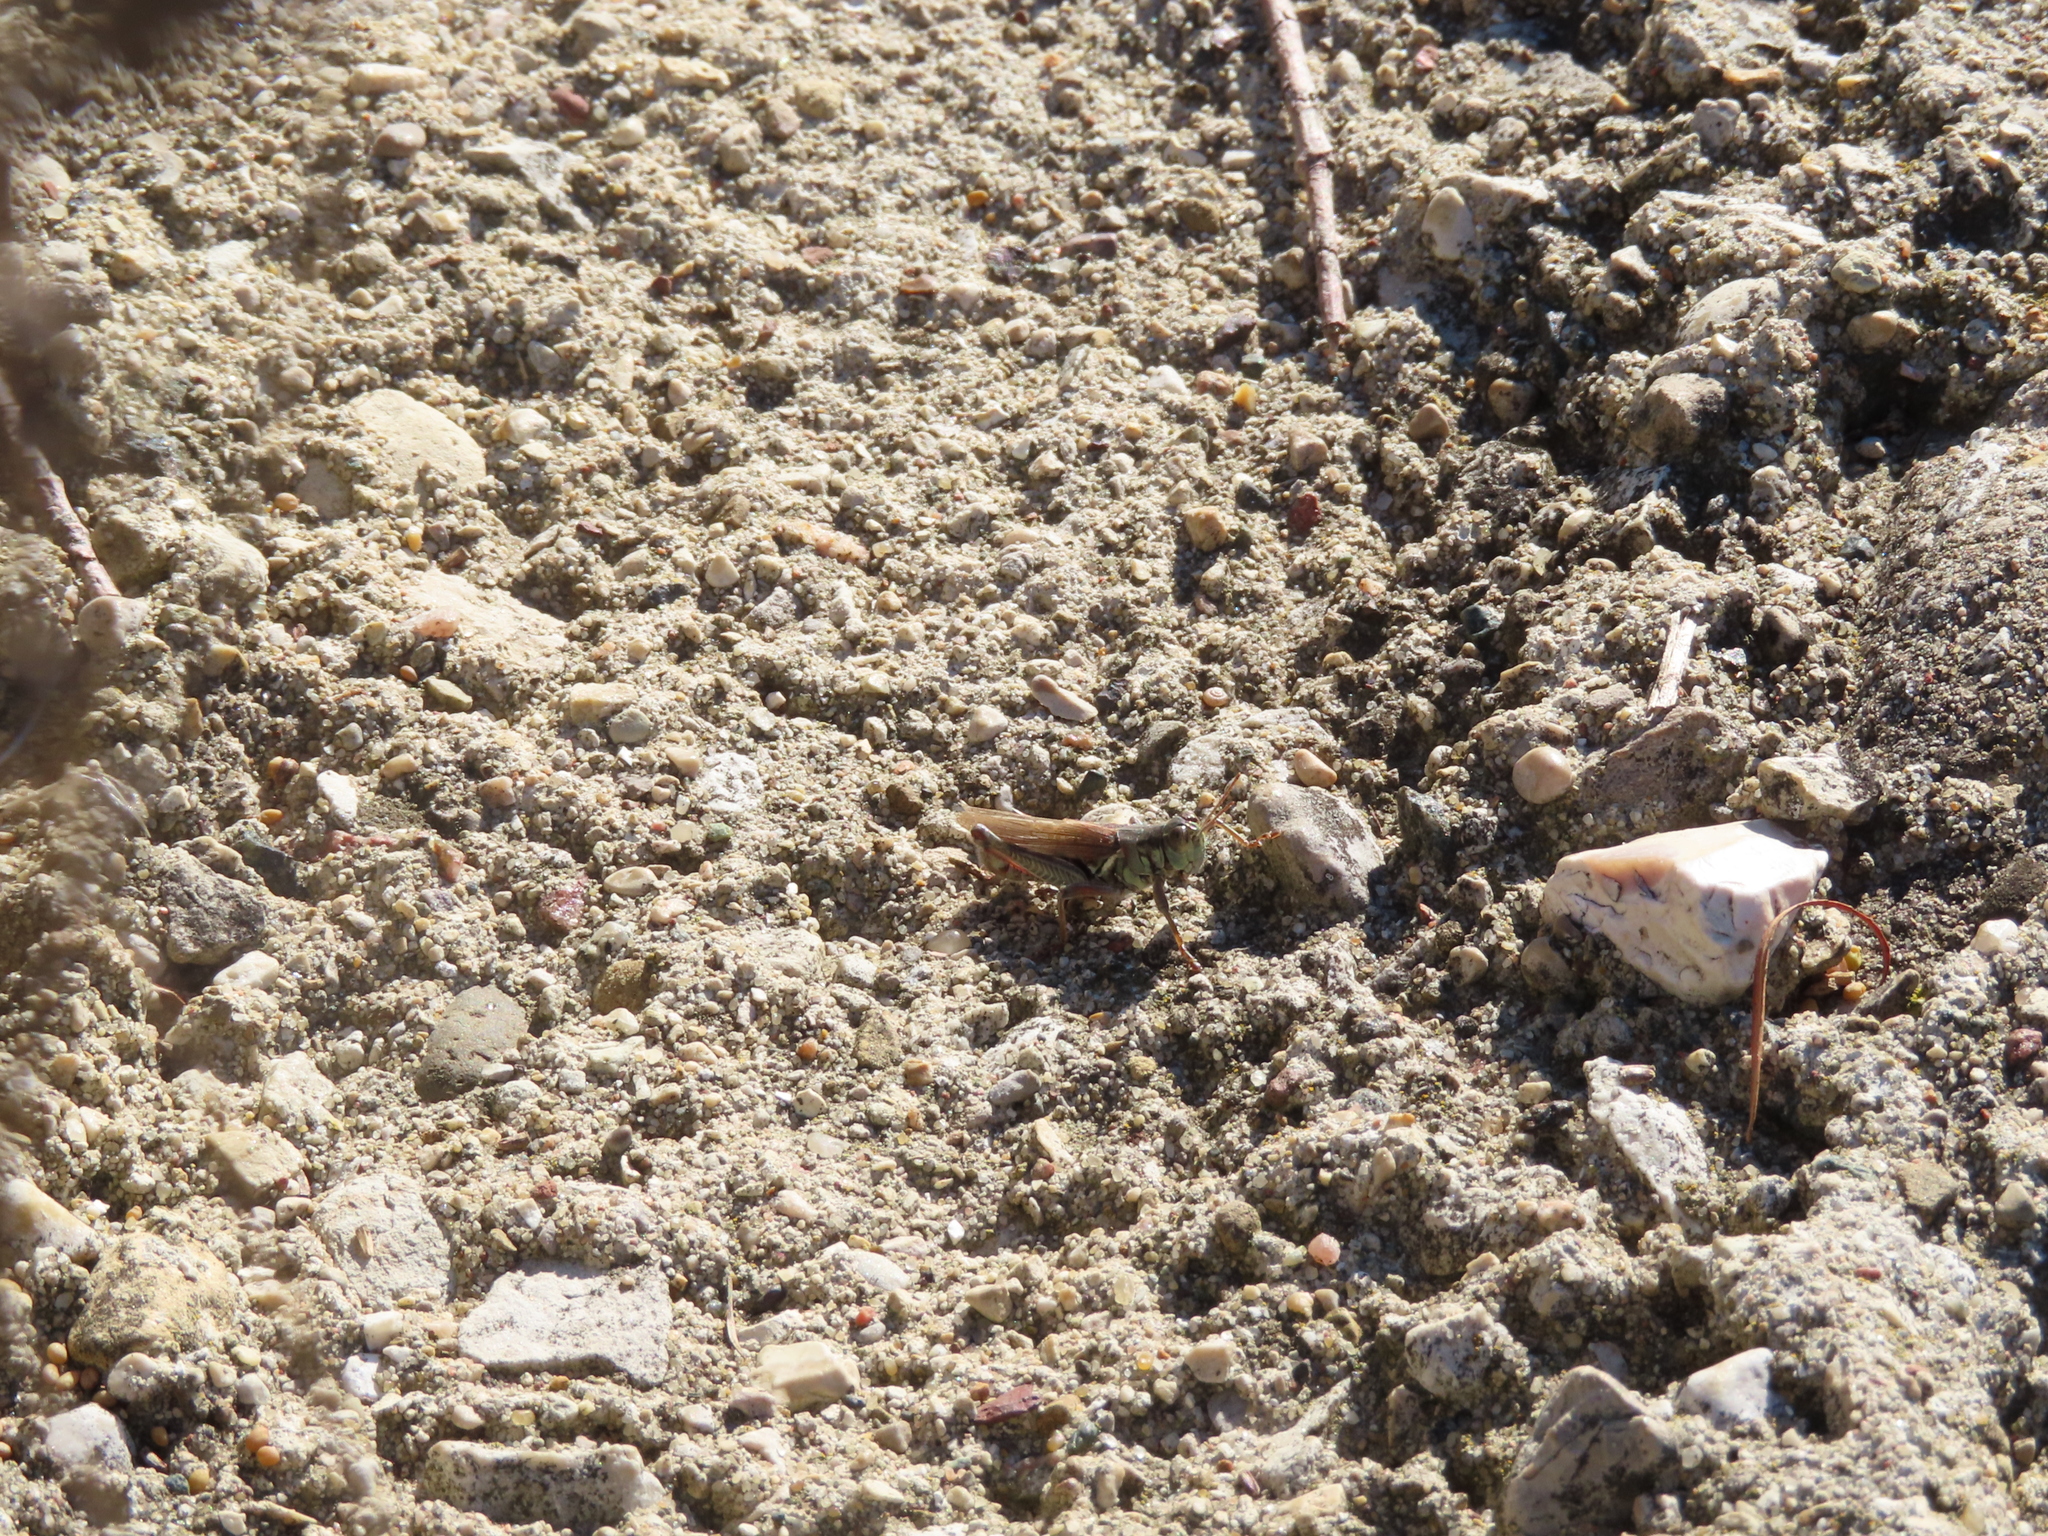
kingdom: Animalia
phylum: Arthropoda
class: Insecta
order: Orthoptera
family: Acrididae
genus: Melanoplus
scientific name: Melanoplus femurrubrum
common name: Red-legged grasshopper
